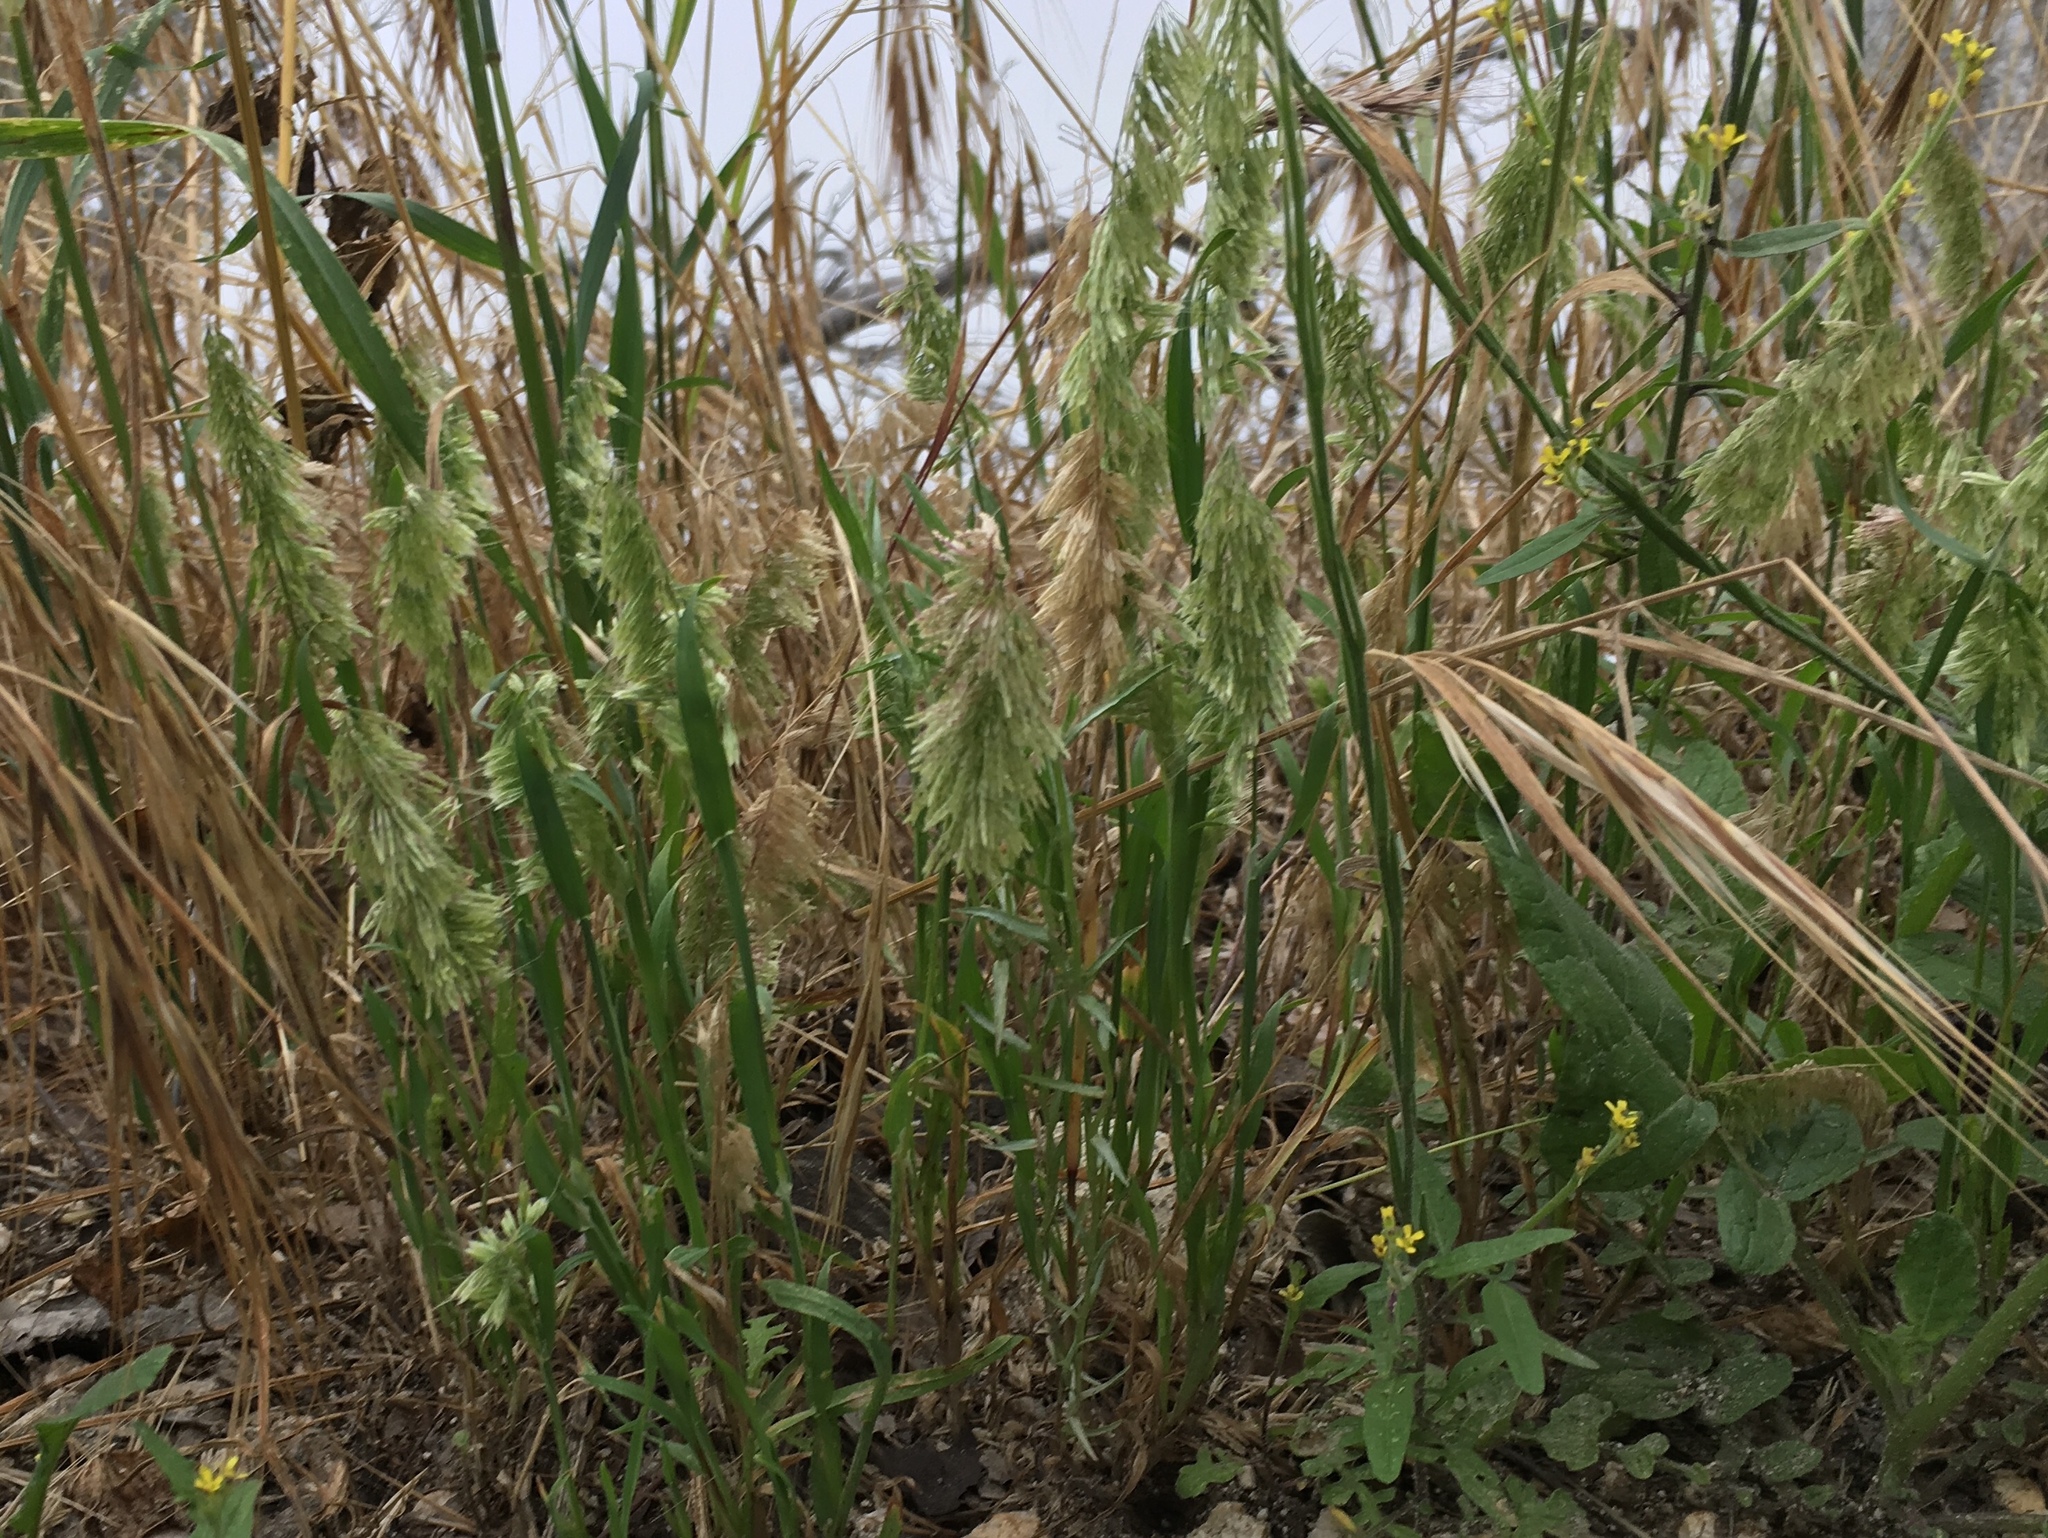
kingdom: Plantae
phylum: Tracheophyta
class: Liliopsida
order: Poales
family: Poaceae
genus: Lamarckia
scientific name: Lamarckia aurea
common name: Golden dog's-tail
